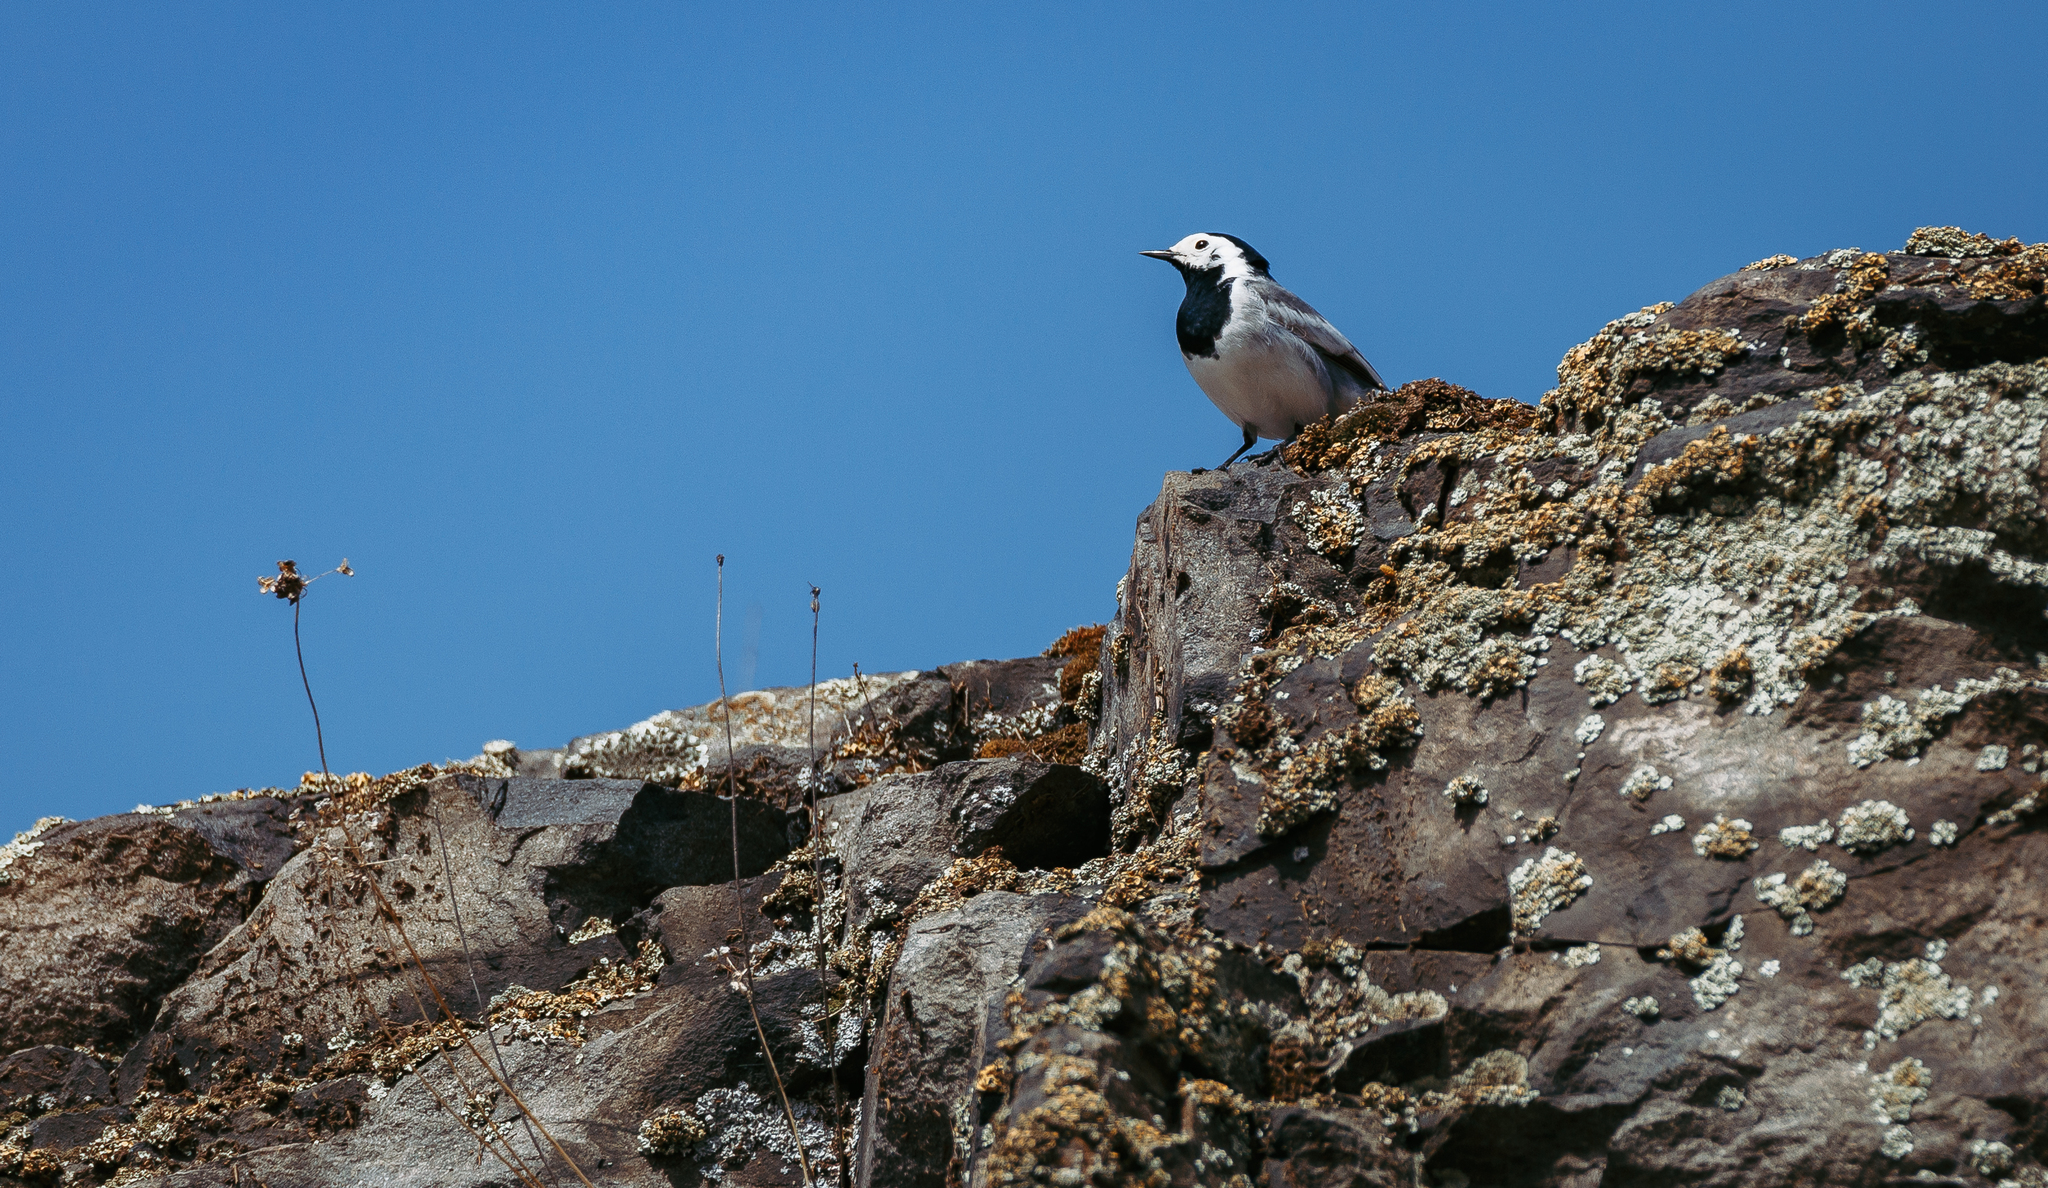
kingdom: Animalia
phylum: Chordata
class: Aves
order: Passeriformes
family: Motacillidae
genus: Motacilla
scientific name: Motacilla alba
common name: White wagtail
